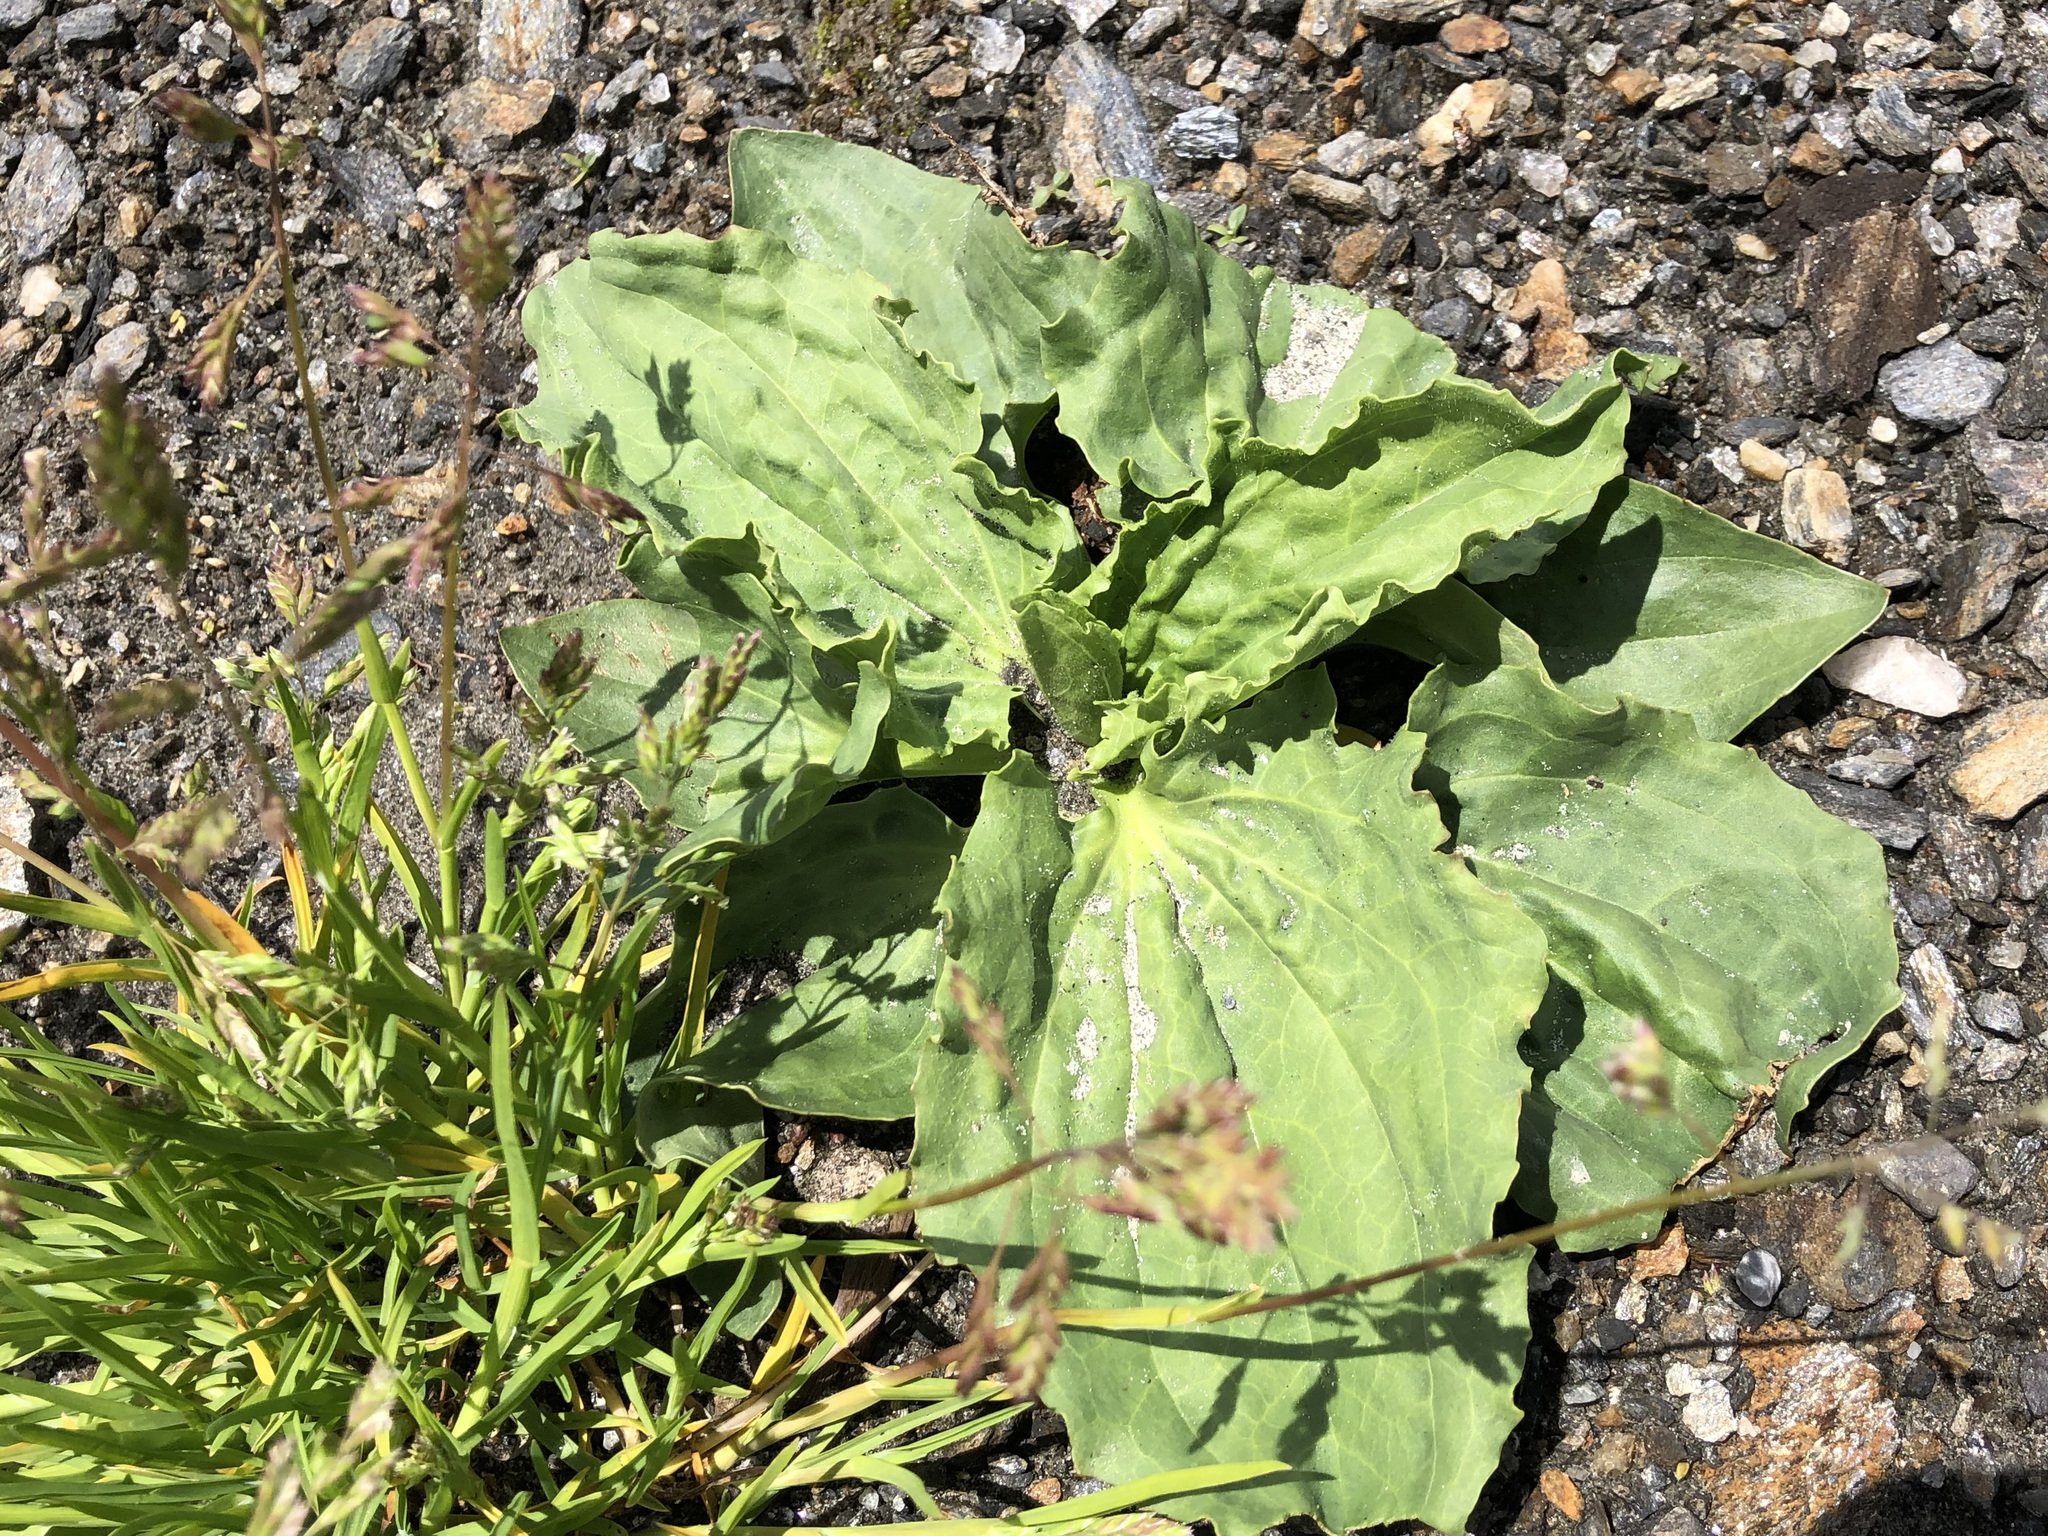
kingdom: Plantae
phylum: Tracheophyta
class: Magnoliopsida
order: Lamiales
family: Plantaginaceae
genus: Plantago
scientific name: Plantago major
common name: Common plantain
